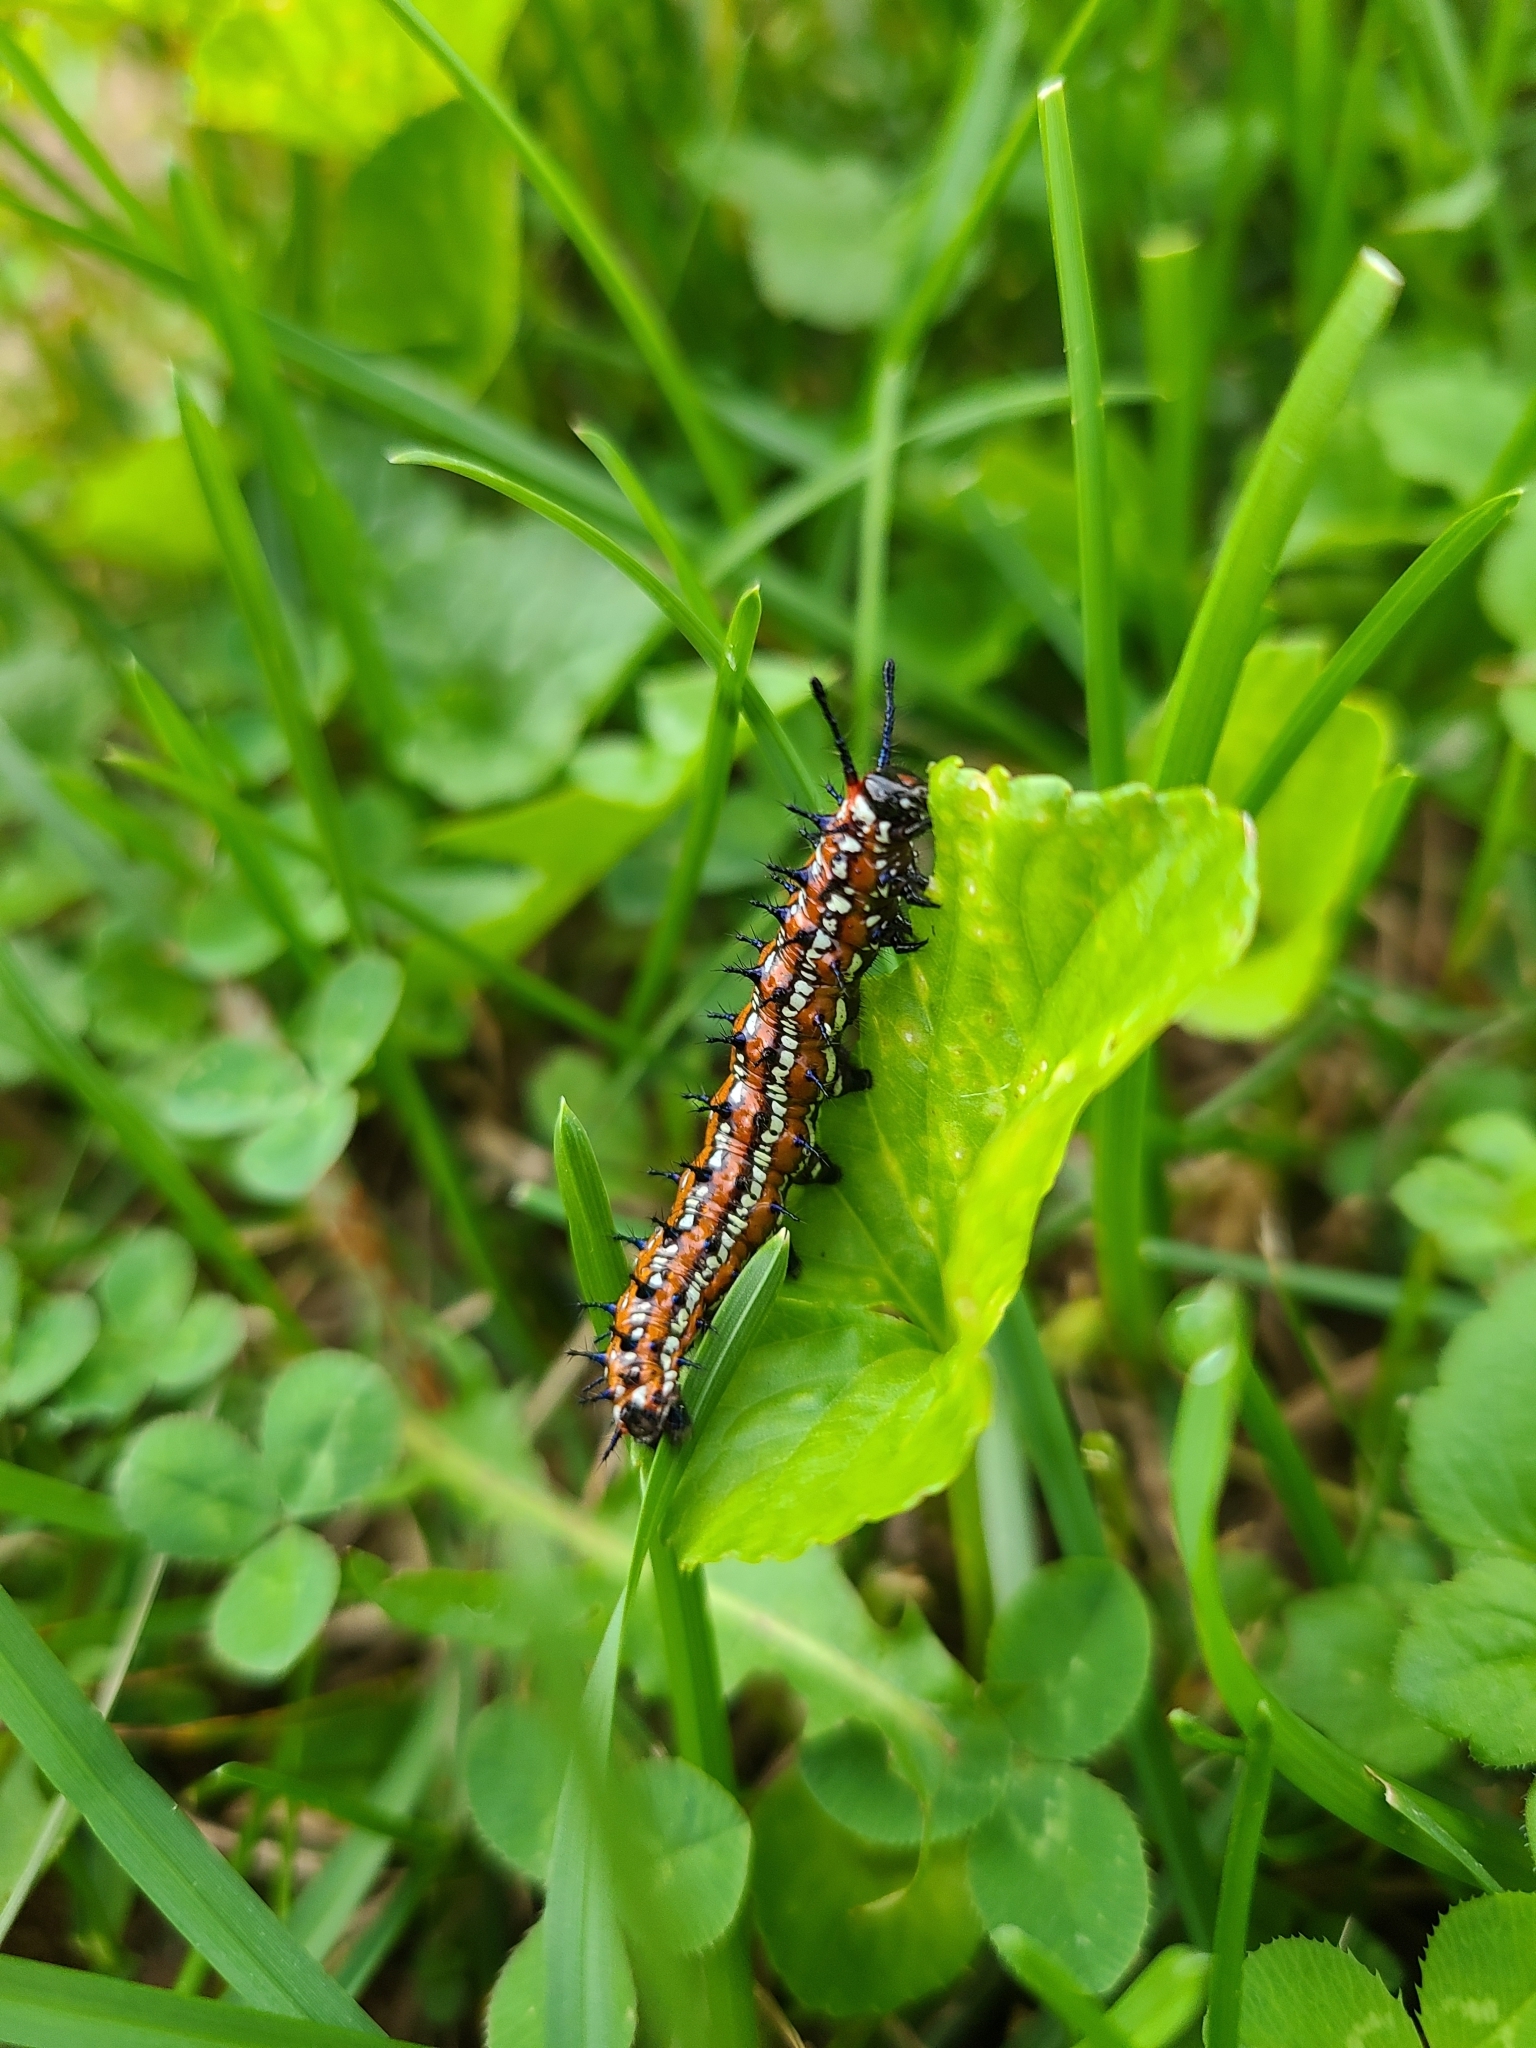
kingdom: Animalia
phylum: Arthropoda
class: Insecta
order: Lepidoptera
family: Nymphalidae
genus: Euptoieta
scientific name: Euptoieta claudia
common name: Variegated fritillary
